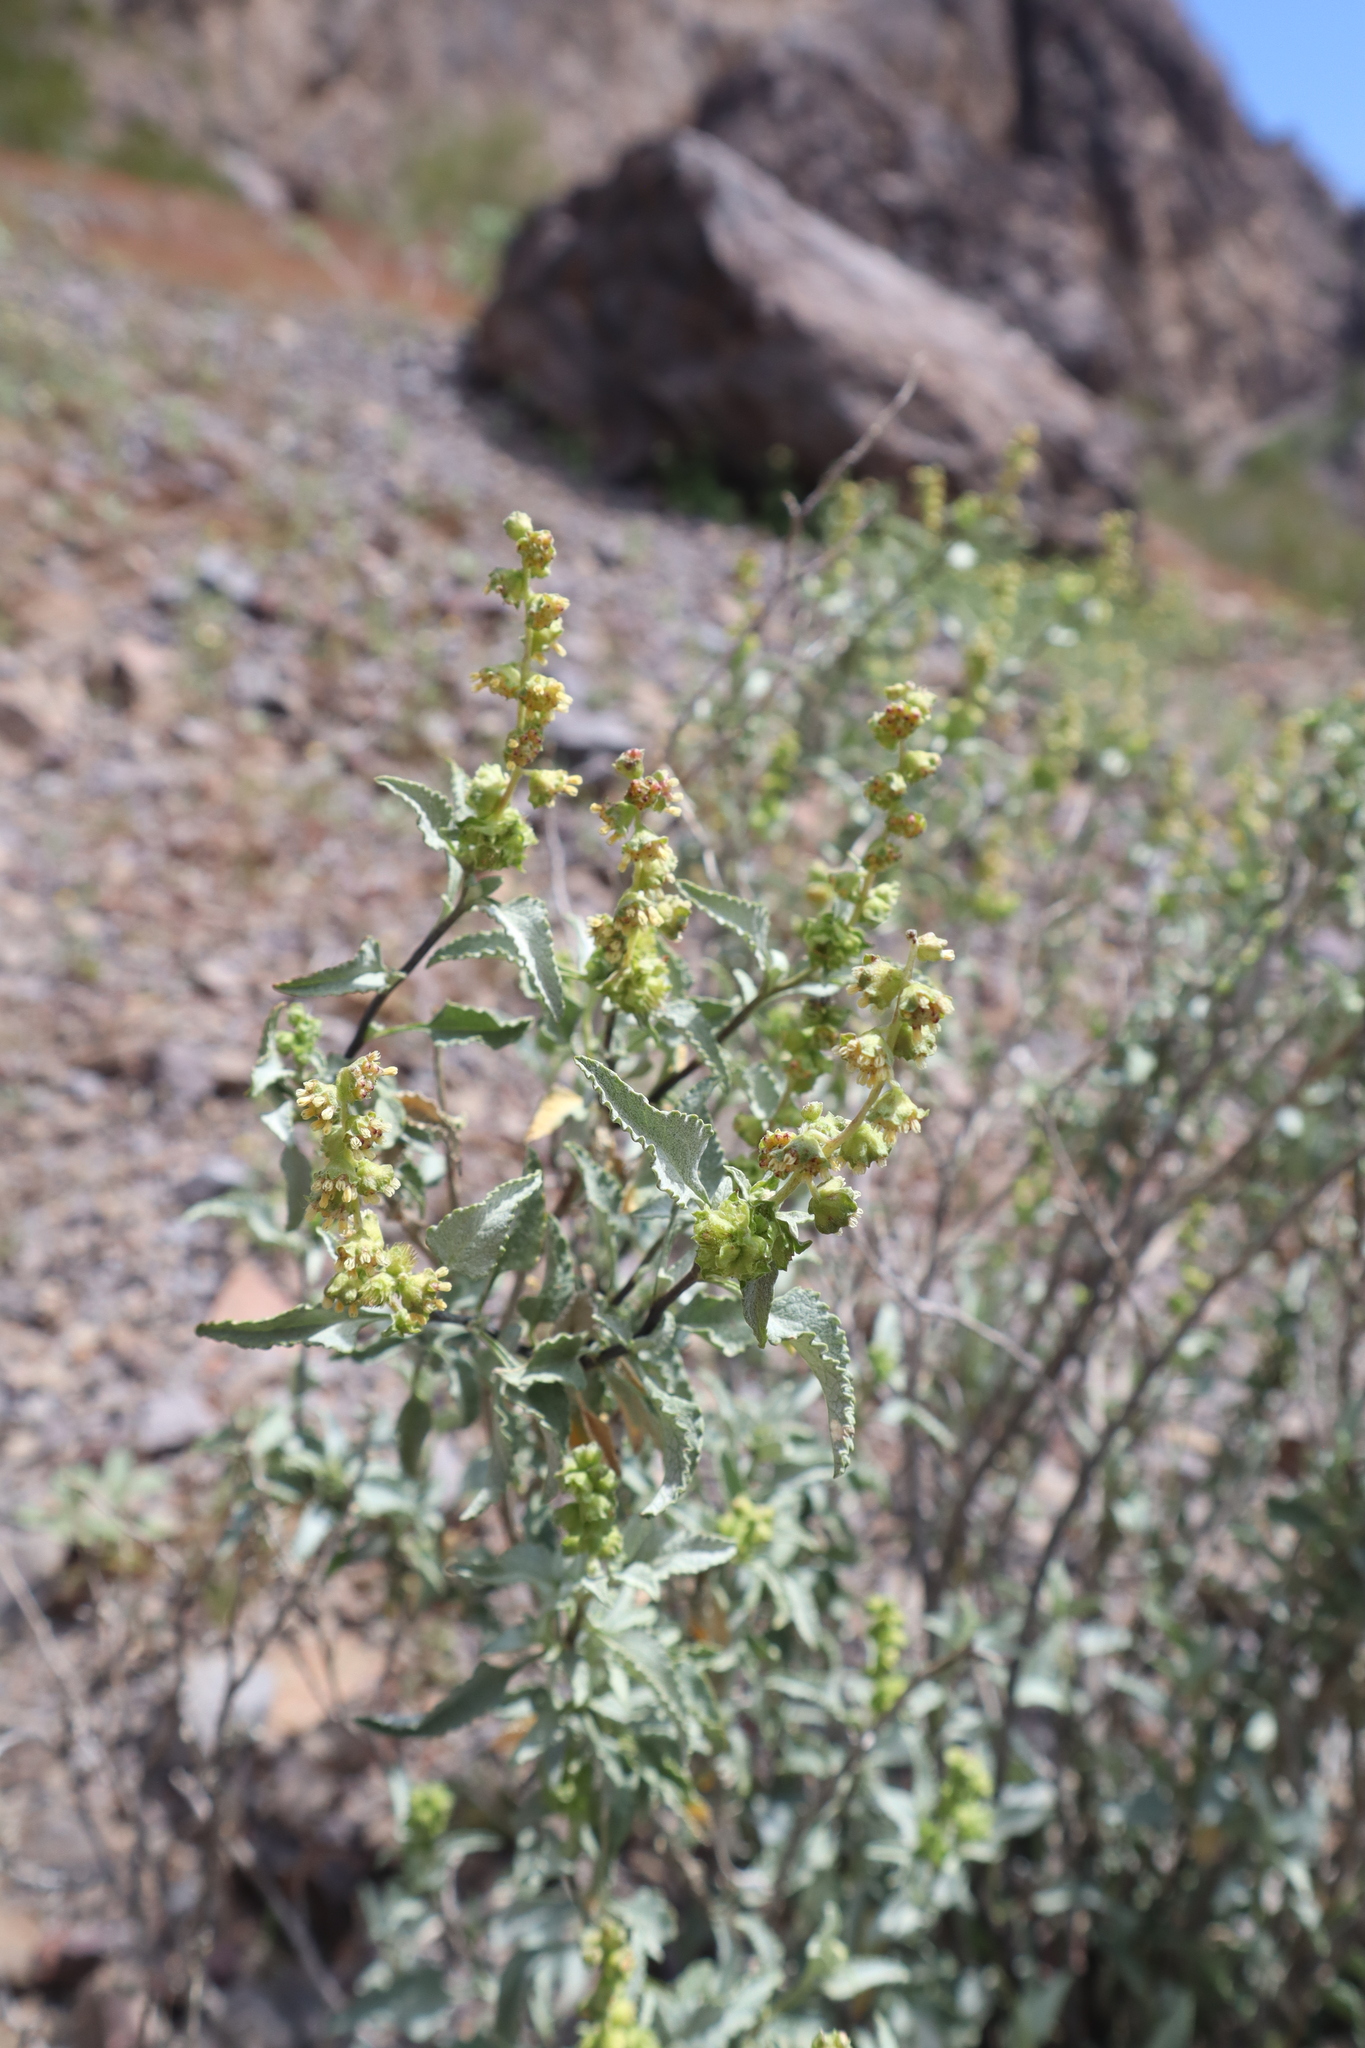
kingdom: Plantae
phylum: Tracheophyta
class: Magnoliopsida
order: Asterales
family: Asteraceae
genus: Ambrosia
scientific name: Ambrosia deltoidea
